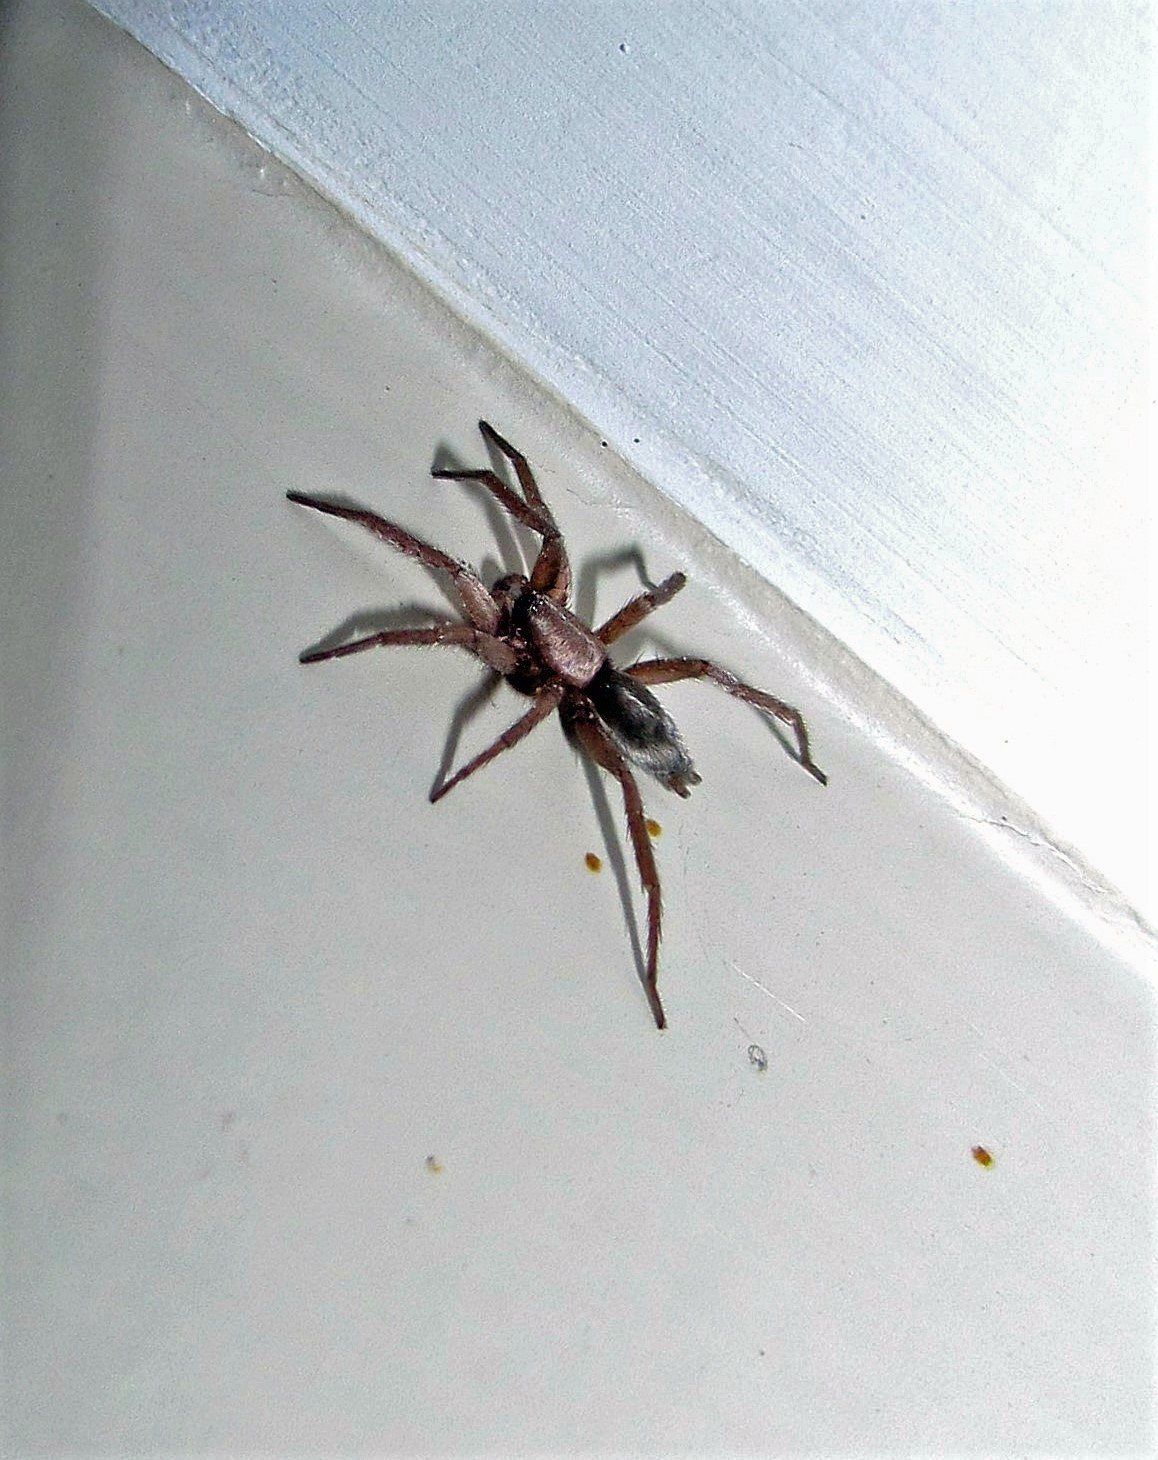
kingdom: Animalia
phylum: Arthropoda
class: Arachnida
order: Araneae
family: Gnaphosidae
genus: Scotophaeus
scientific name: Scotophaeus blackwalli
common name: Mouse spider
